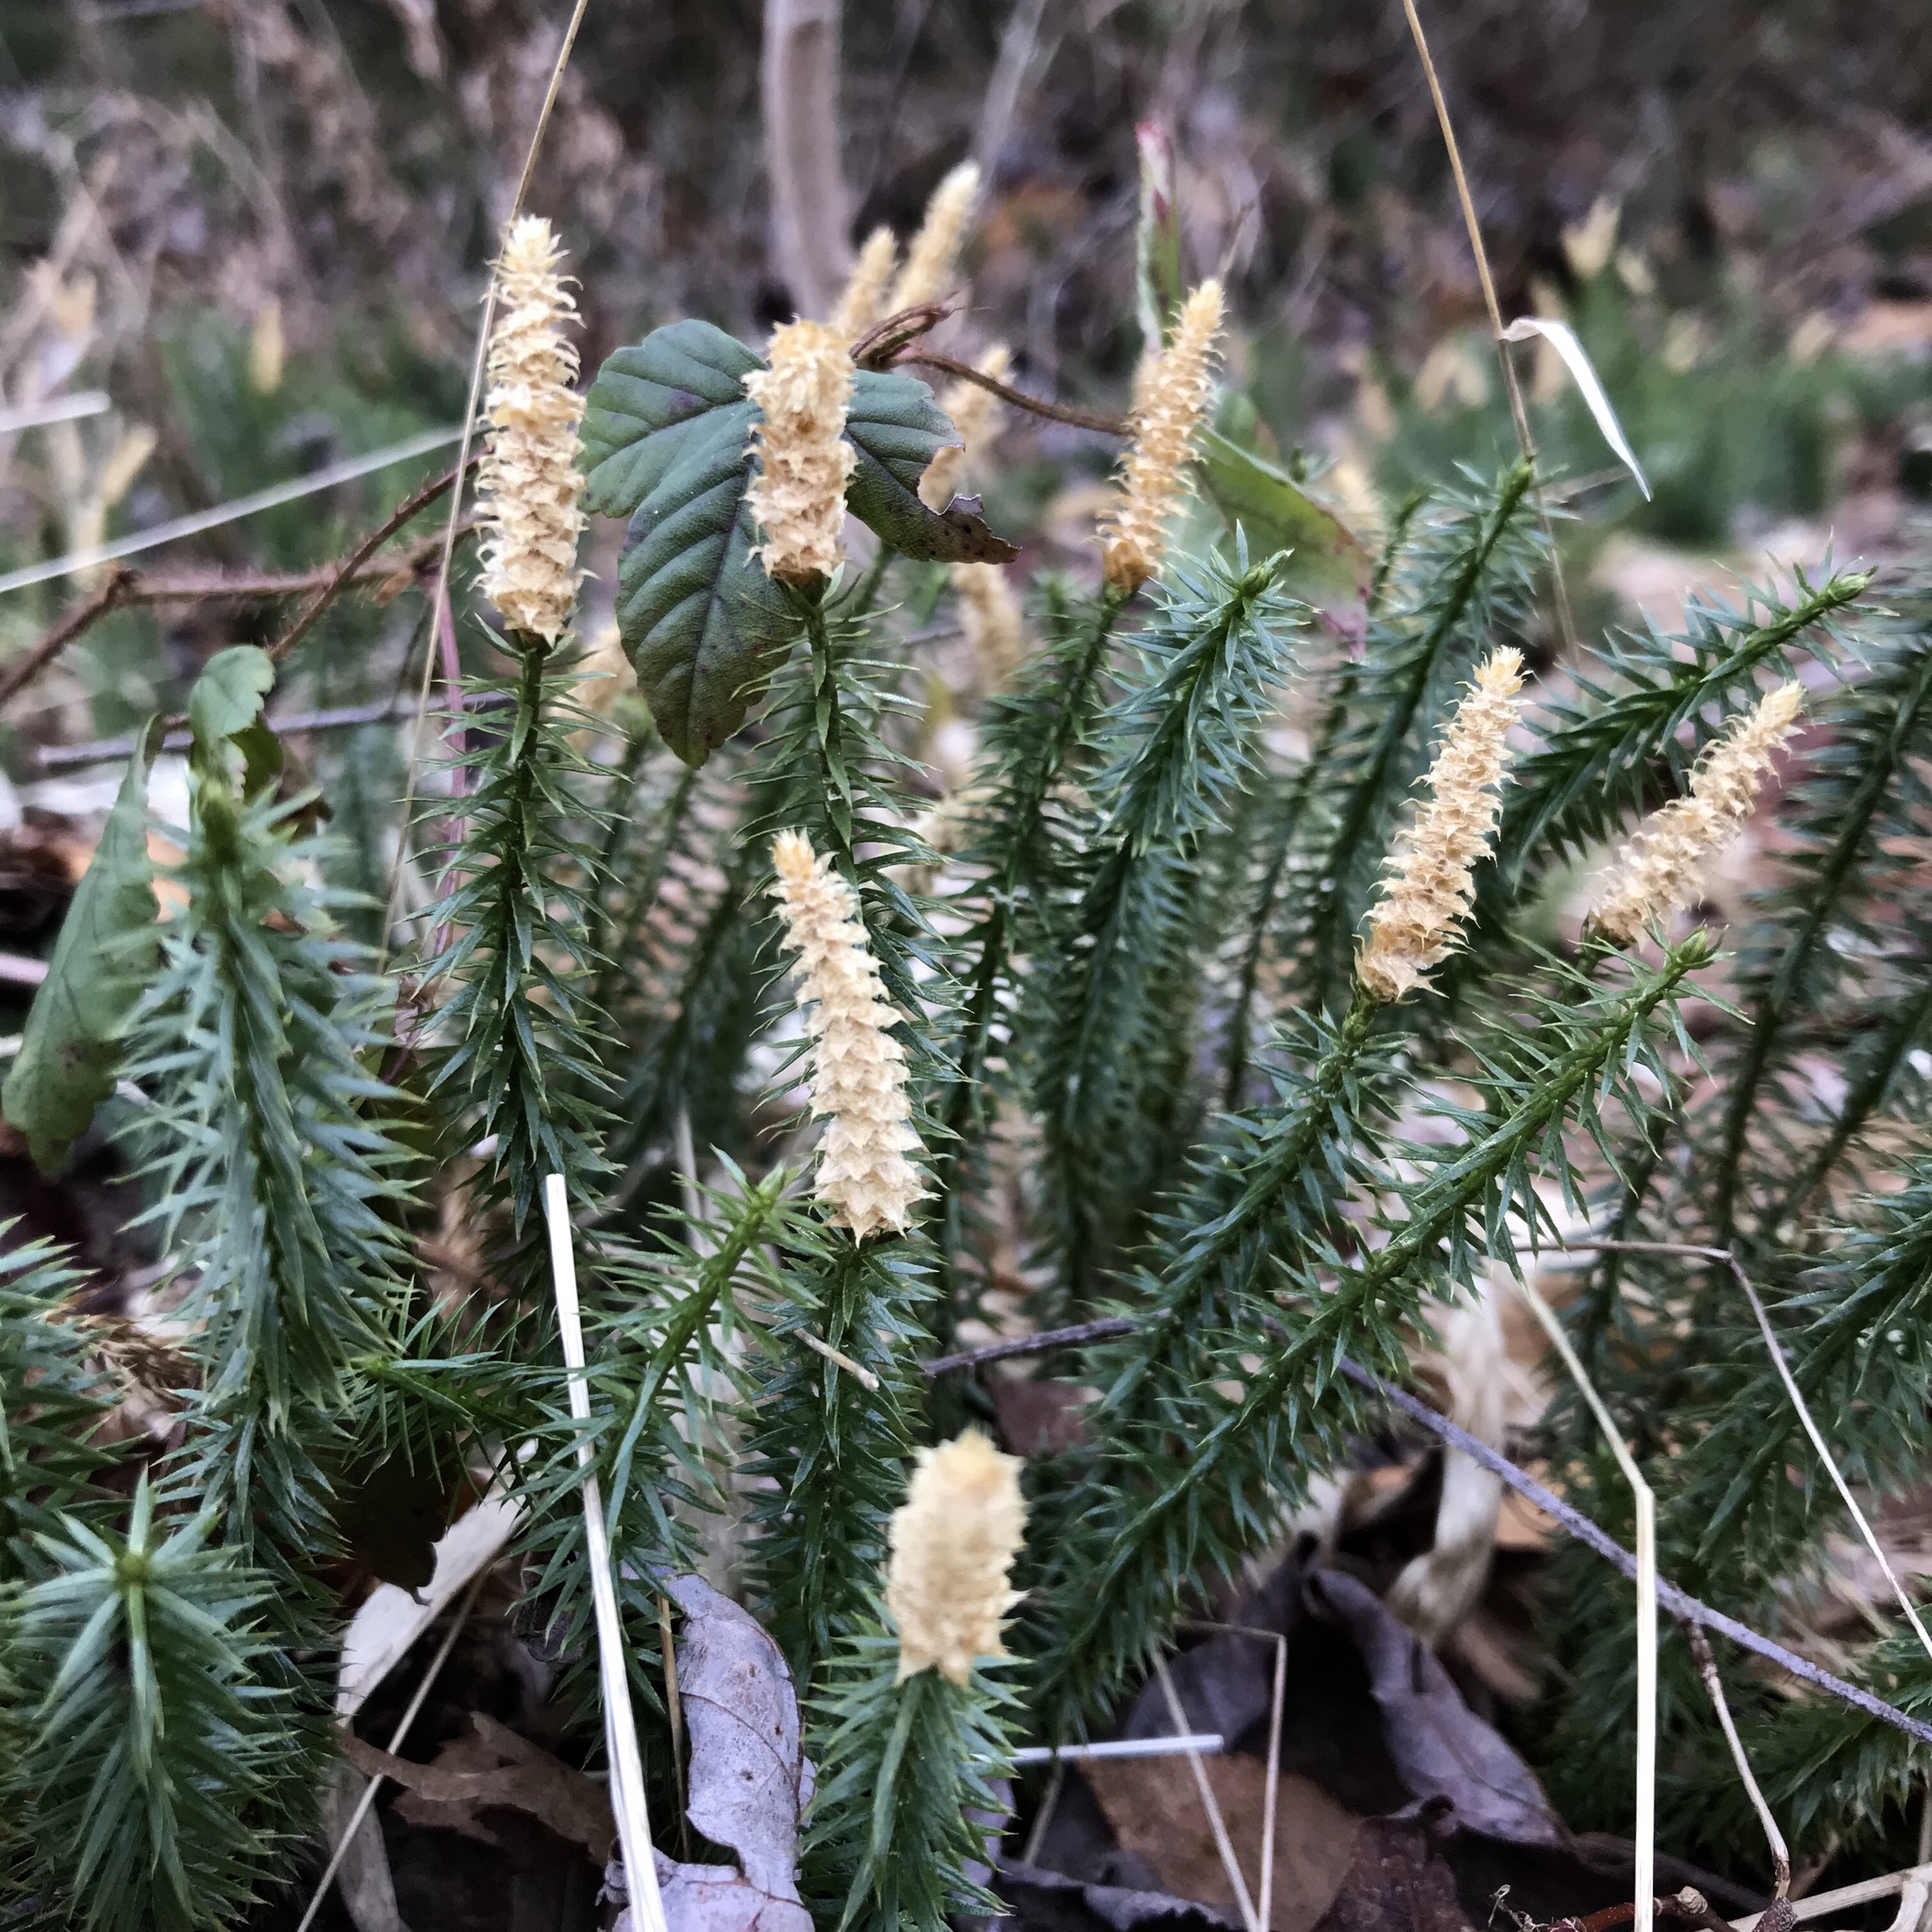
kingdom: Plantae
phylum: Tracheophyta
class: Lycopodiopsida
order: Lycopodiales
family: Lycopodiaceae
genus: Spinulum
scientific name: Spinulum annotinum
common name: Interrupted club-moss
